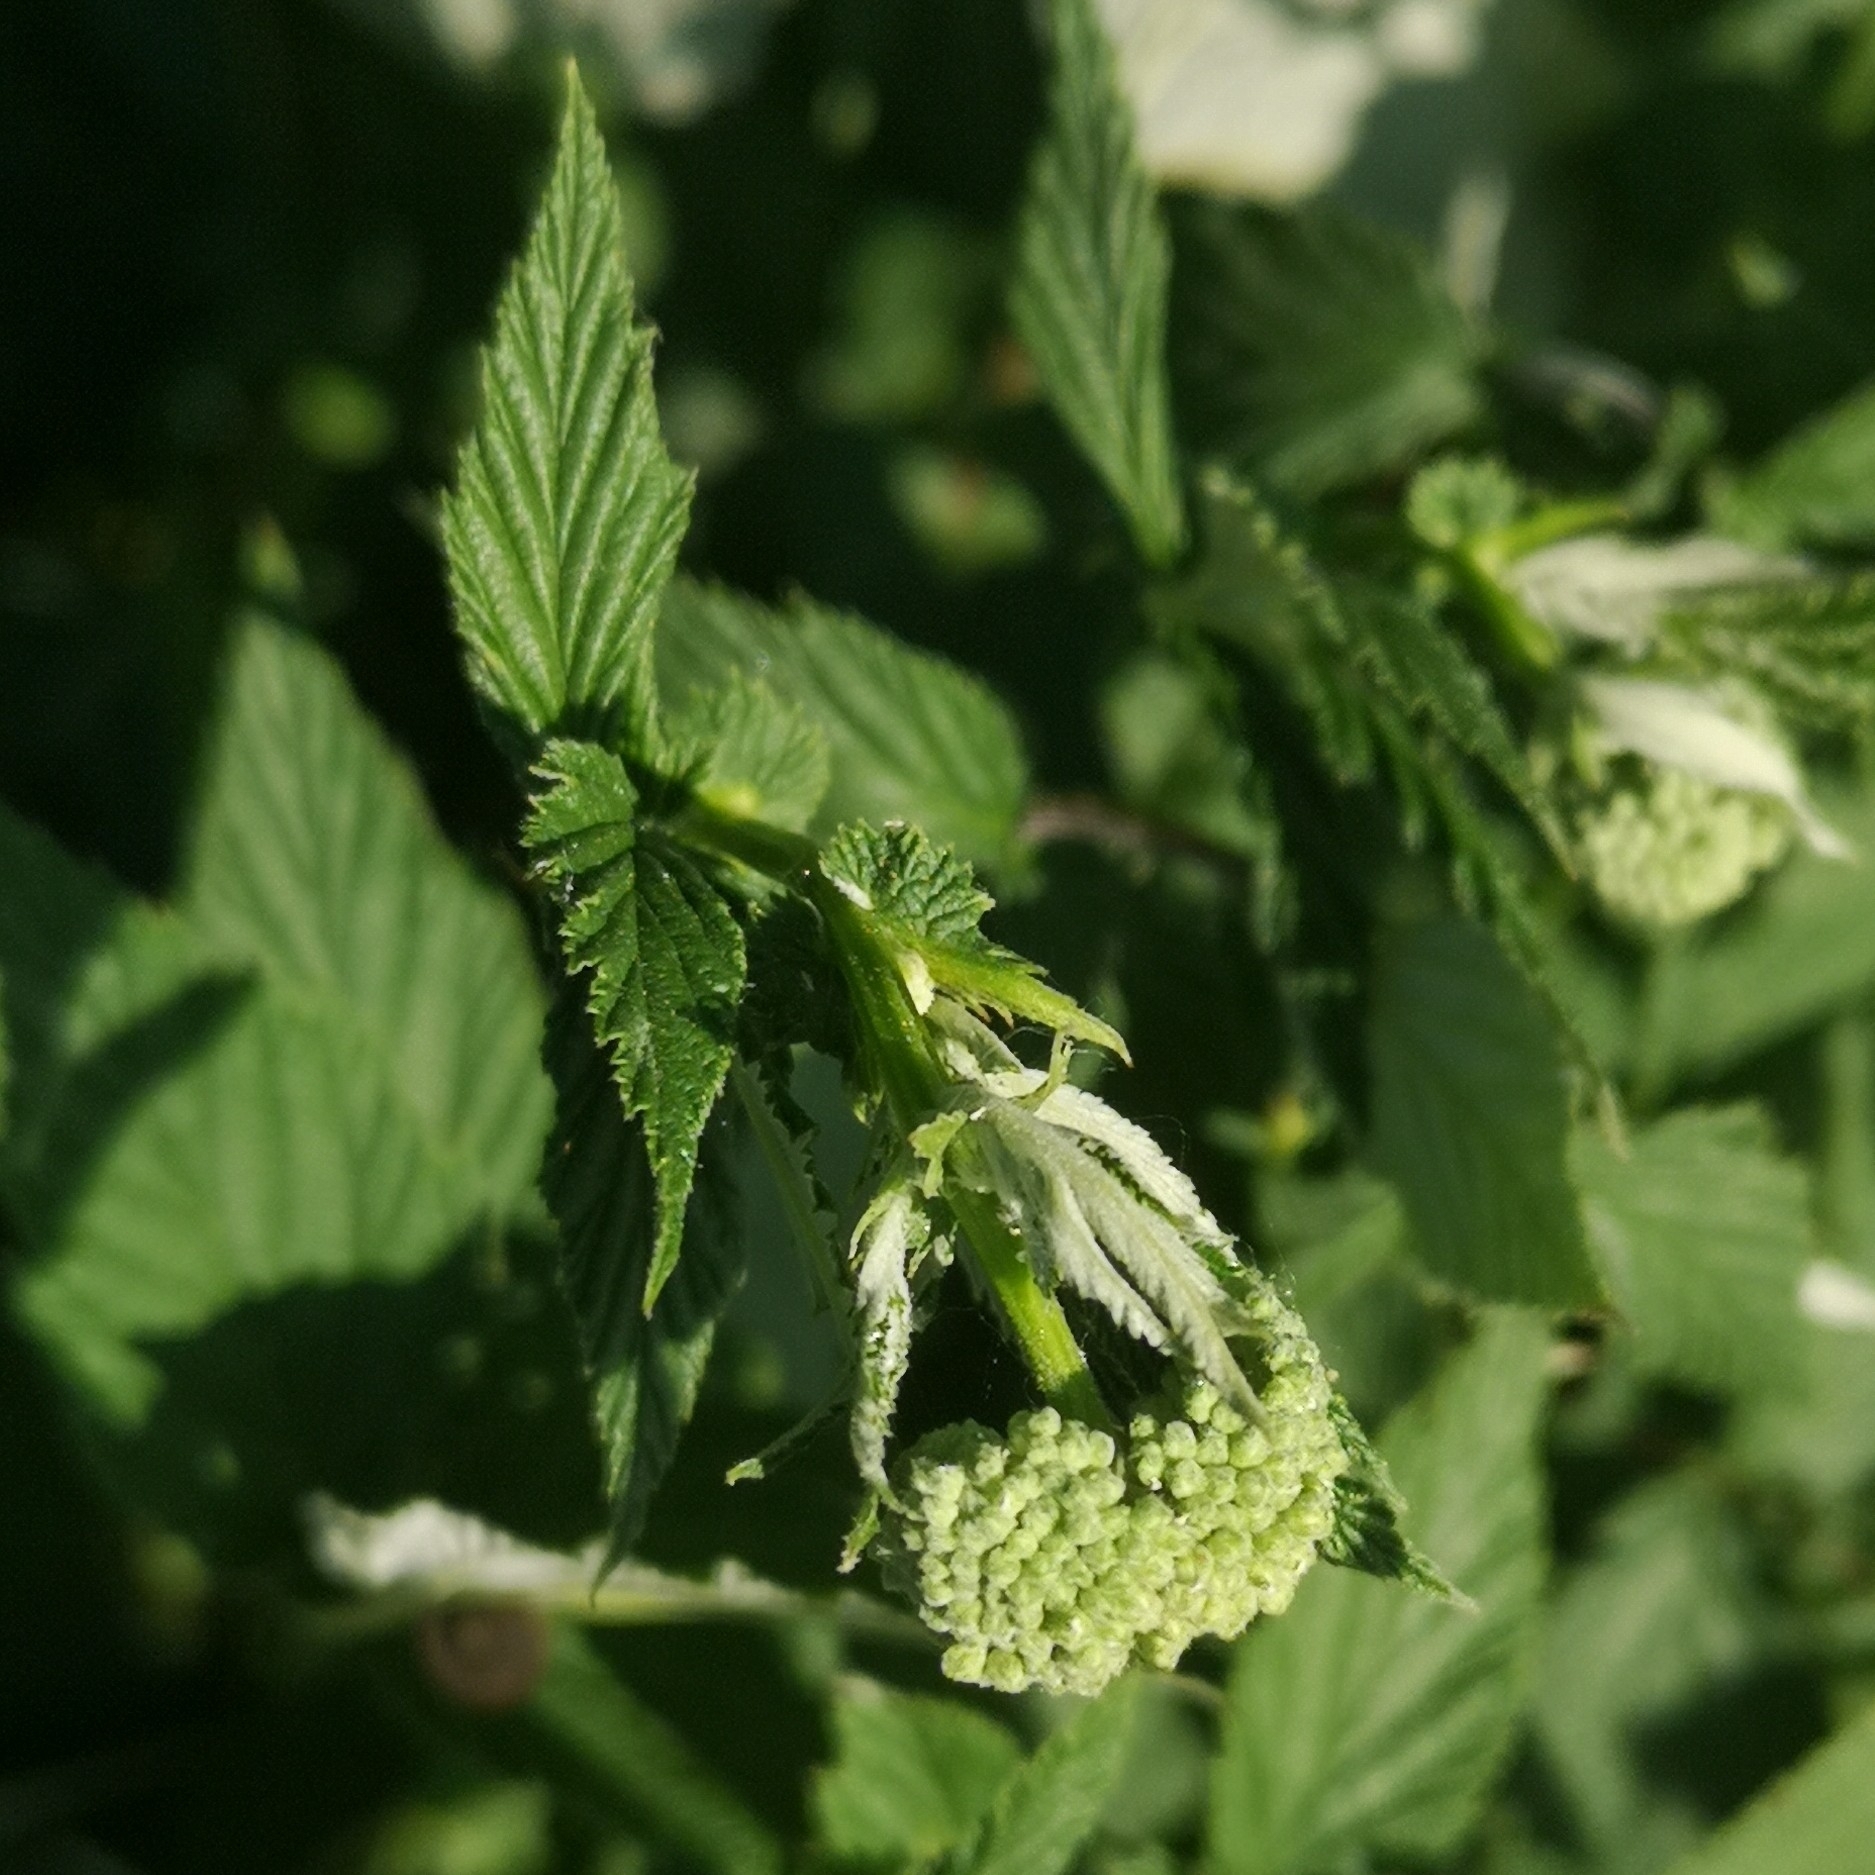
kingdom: Plantae
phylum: Tracheophyta
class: Magnoliopsida
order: Rosales
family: Rosaceae
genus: Filipendula
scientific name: Filipendula ulmaria
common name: Meadowsweet
